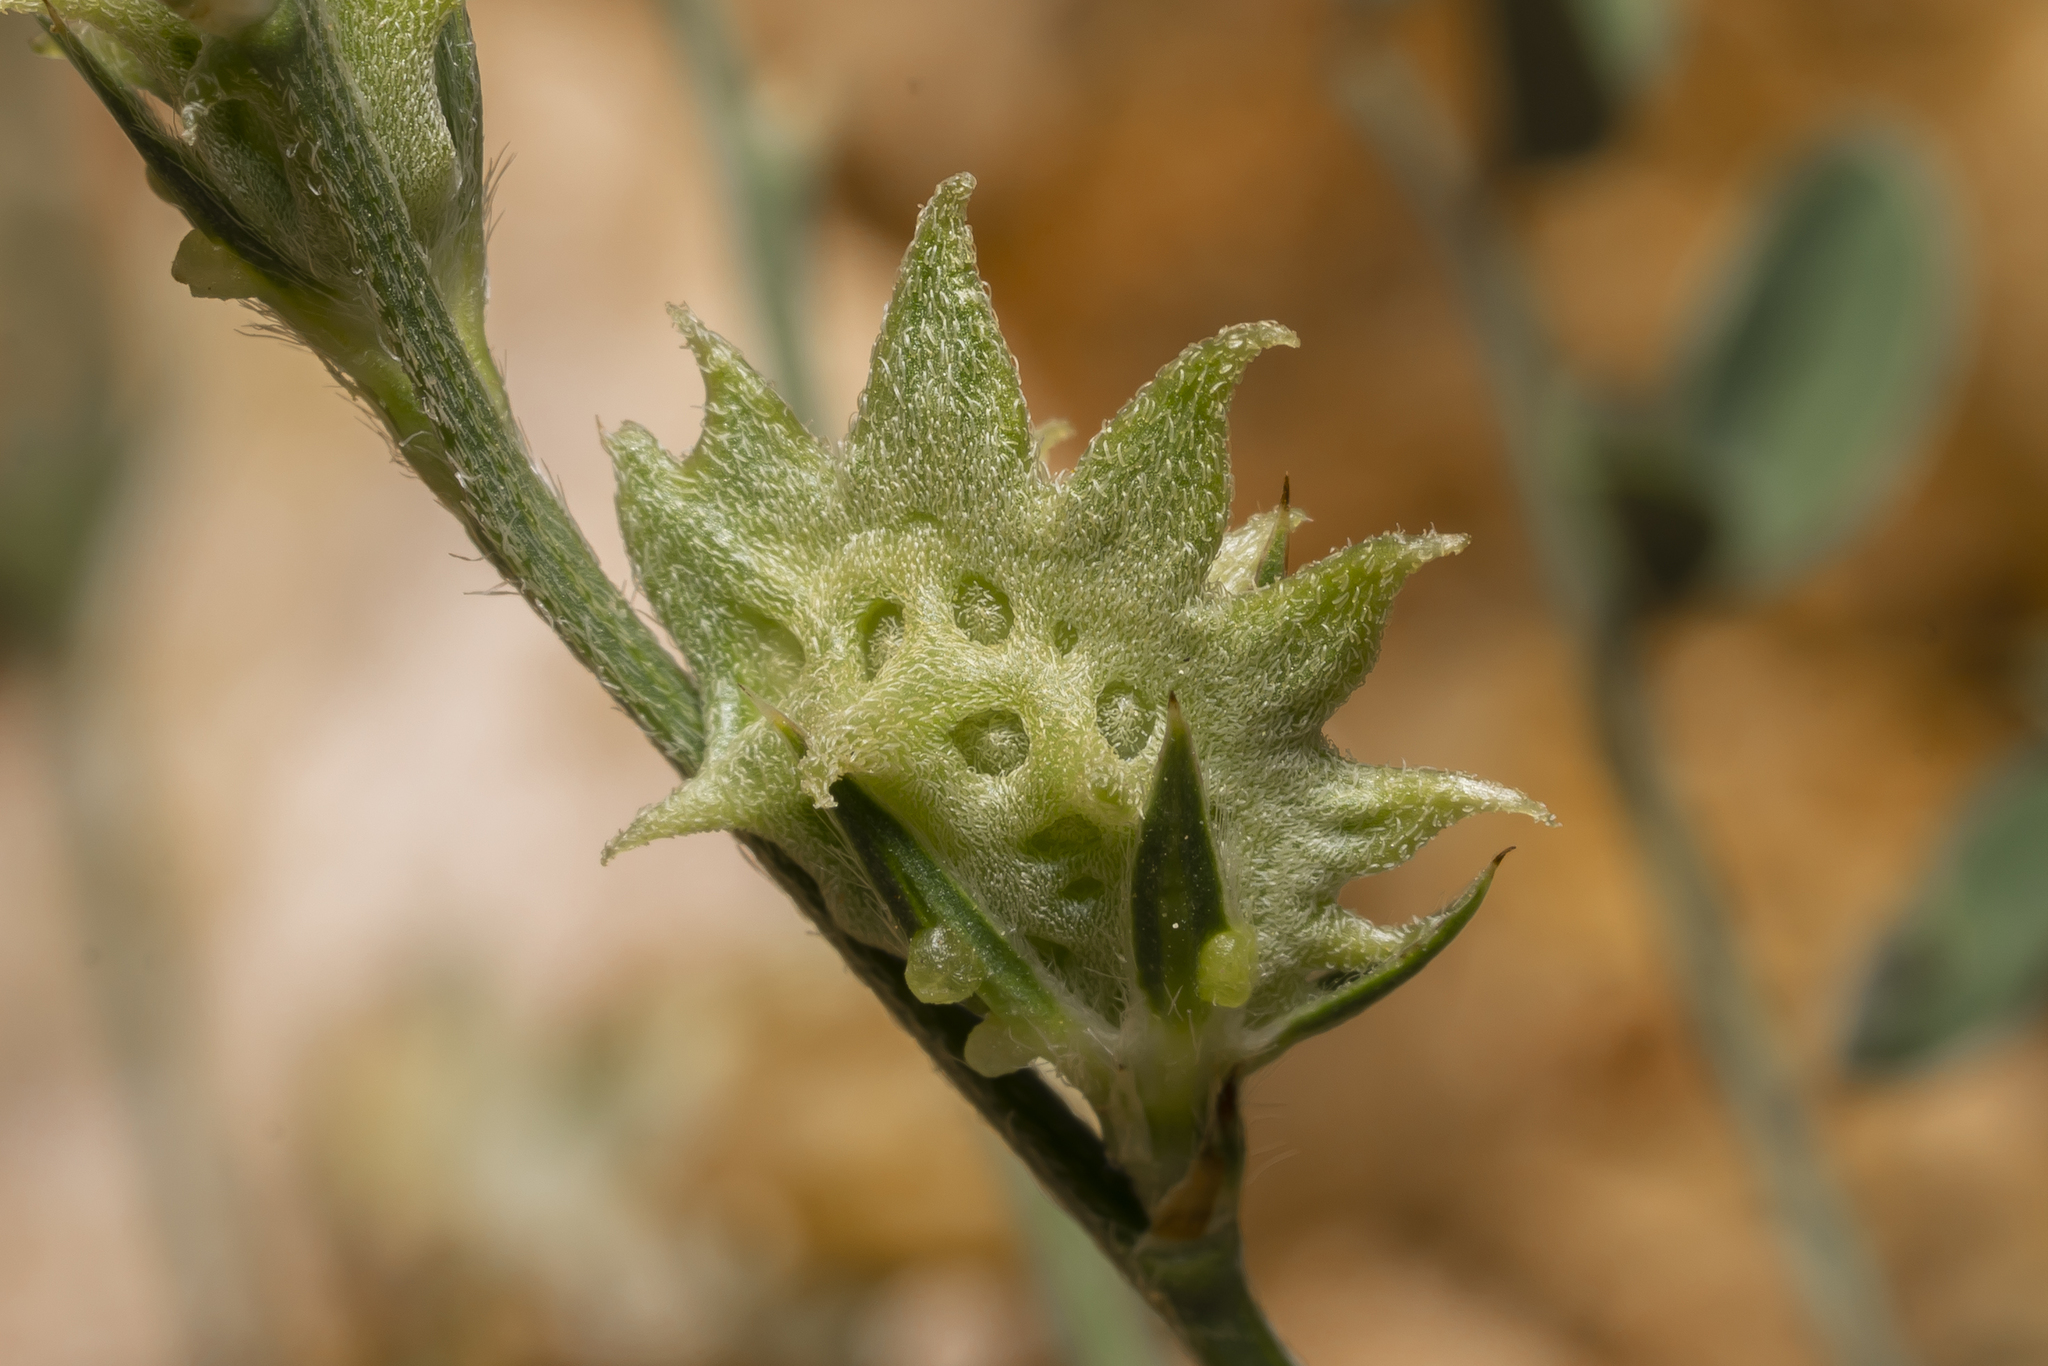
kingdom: Plantae
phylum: Tracheophyta
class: Magnoliopsida
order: Fabales
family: Fabaceae
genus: Onobrychis
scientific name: Onobrychis aequidentata
